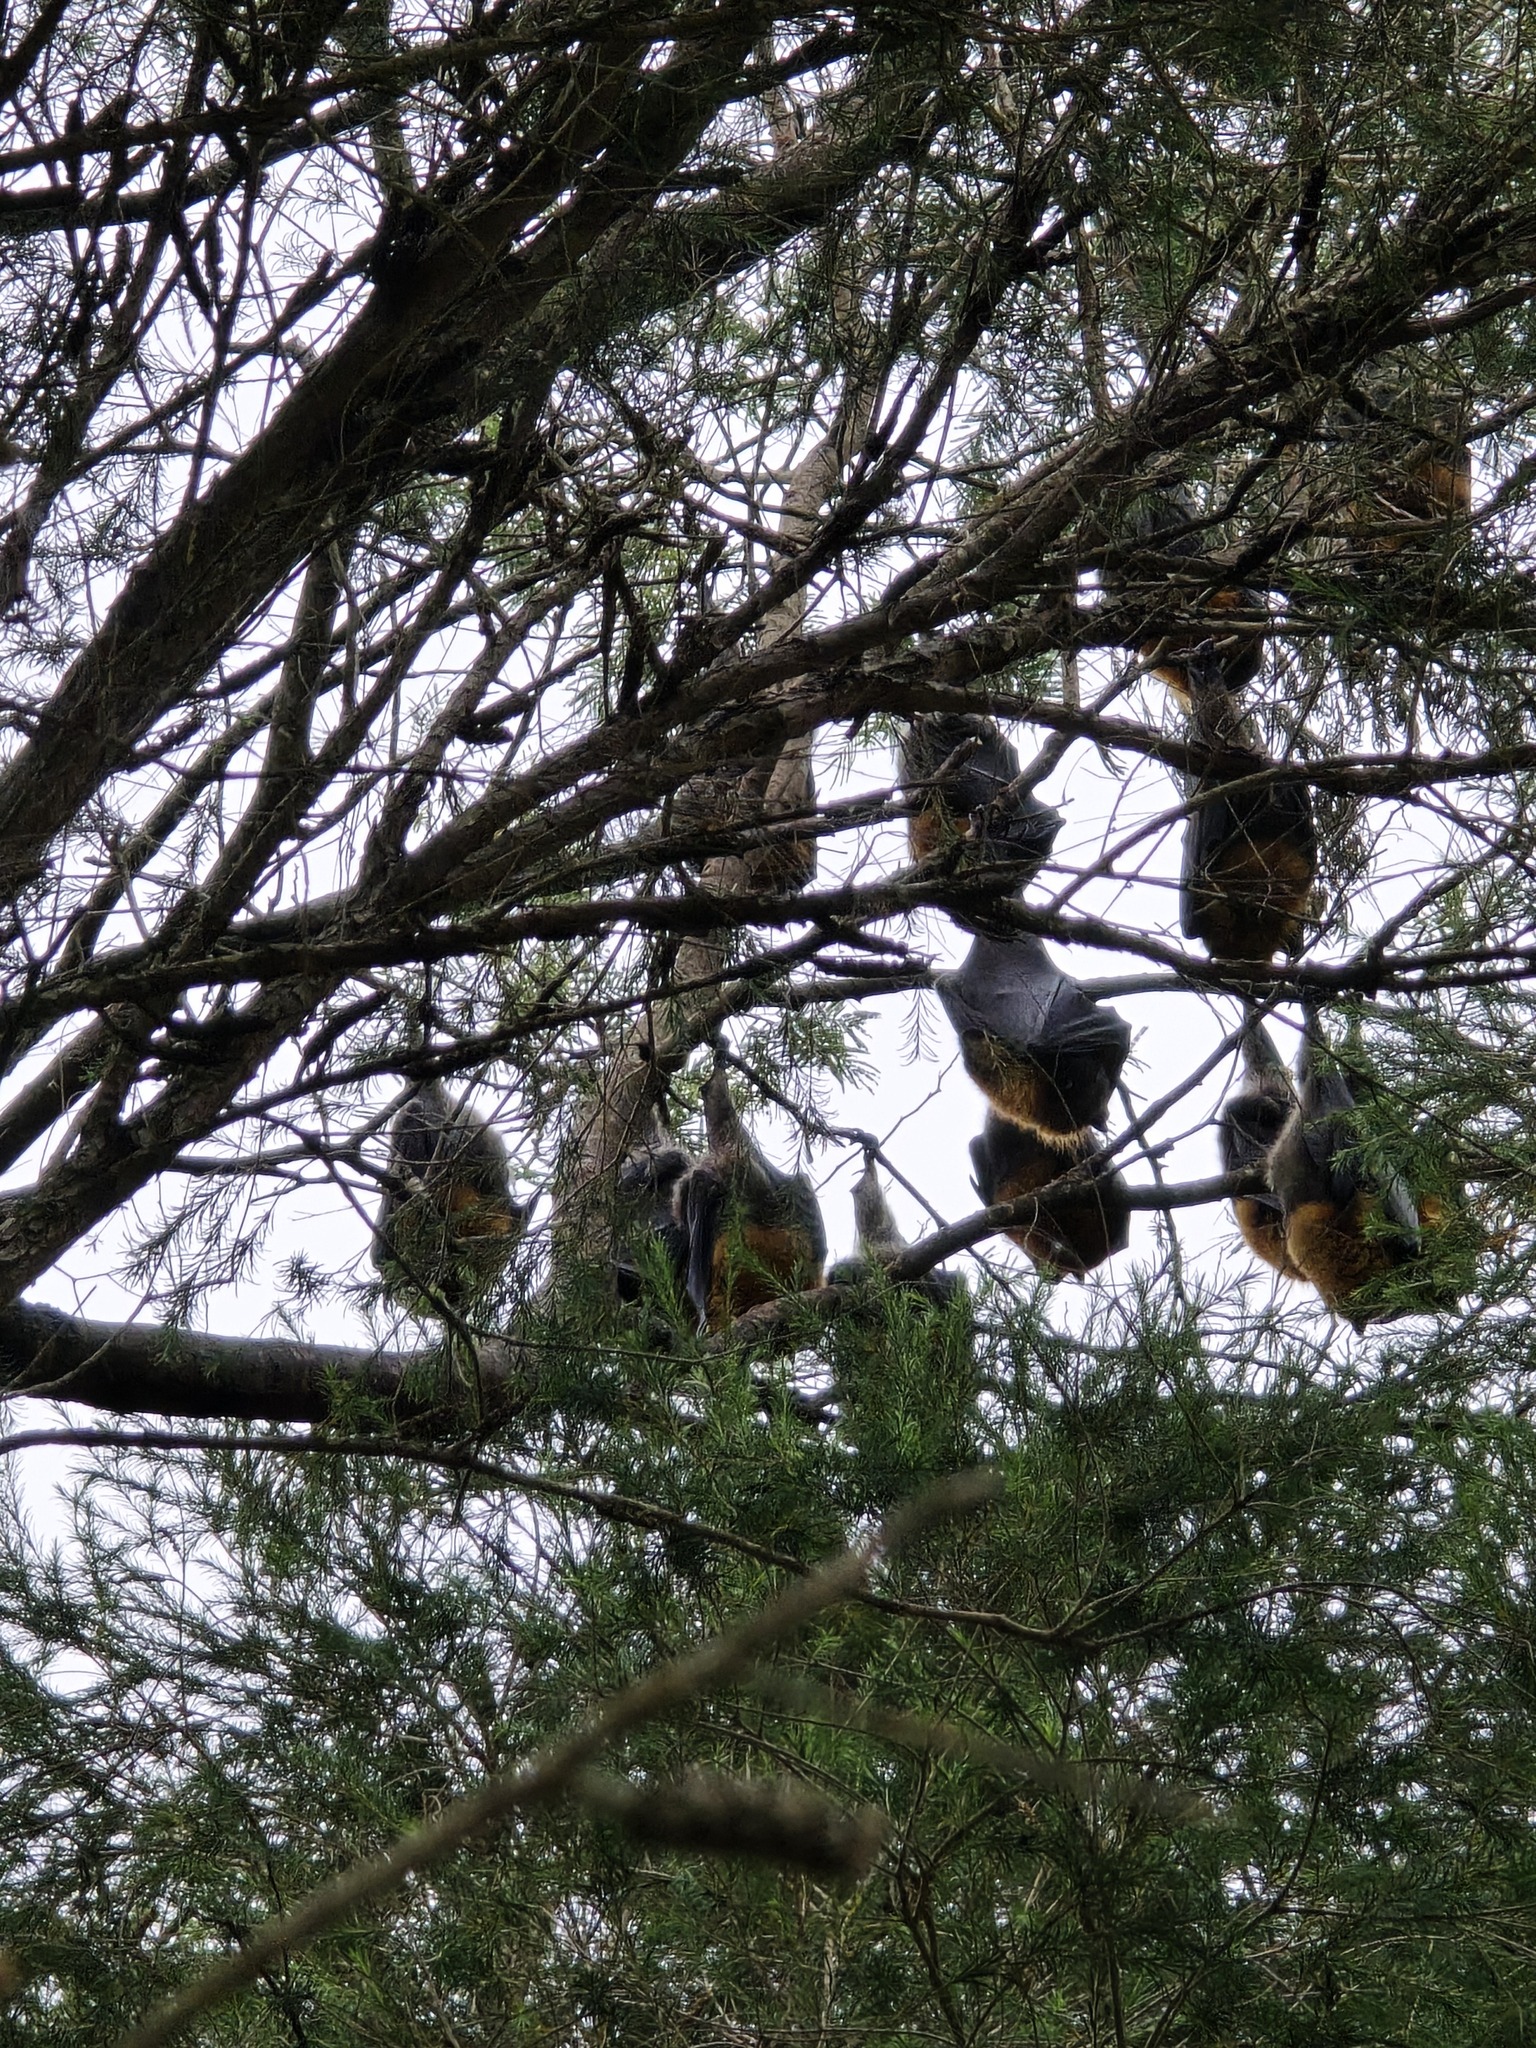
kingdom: Animalia
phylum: Chordata
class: Mammalia
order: Chiroptera
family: Pteropodidae
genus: Pteropus
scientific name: Pteropus poliocephalus
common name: Gray-headed flying fox
